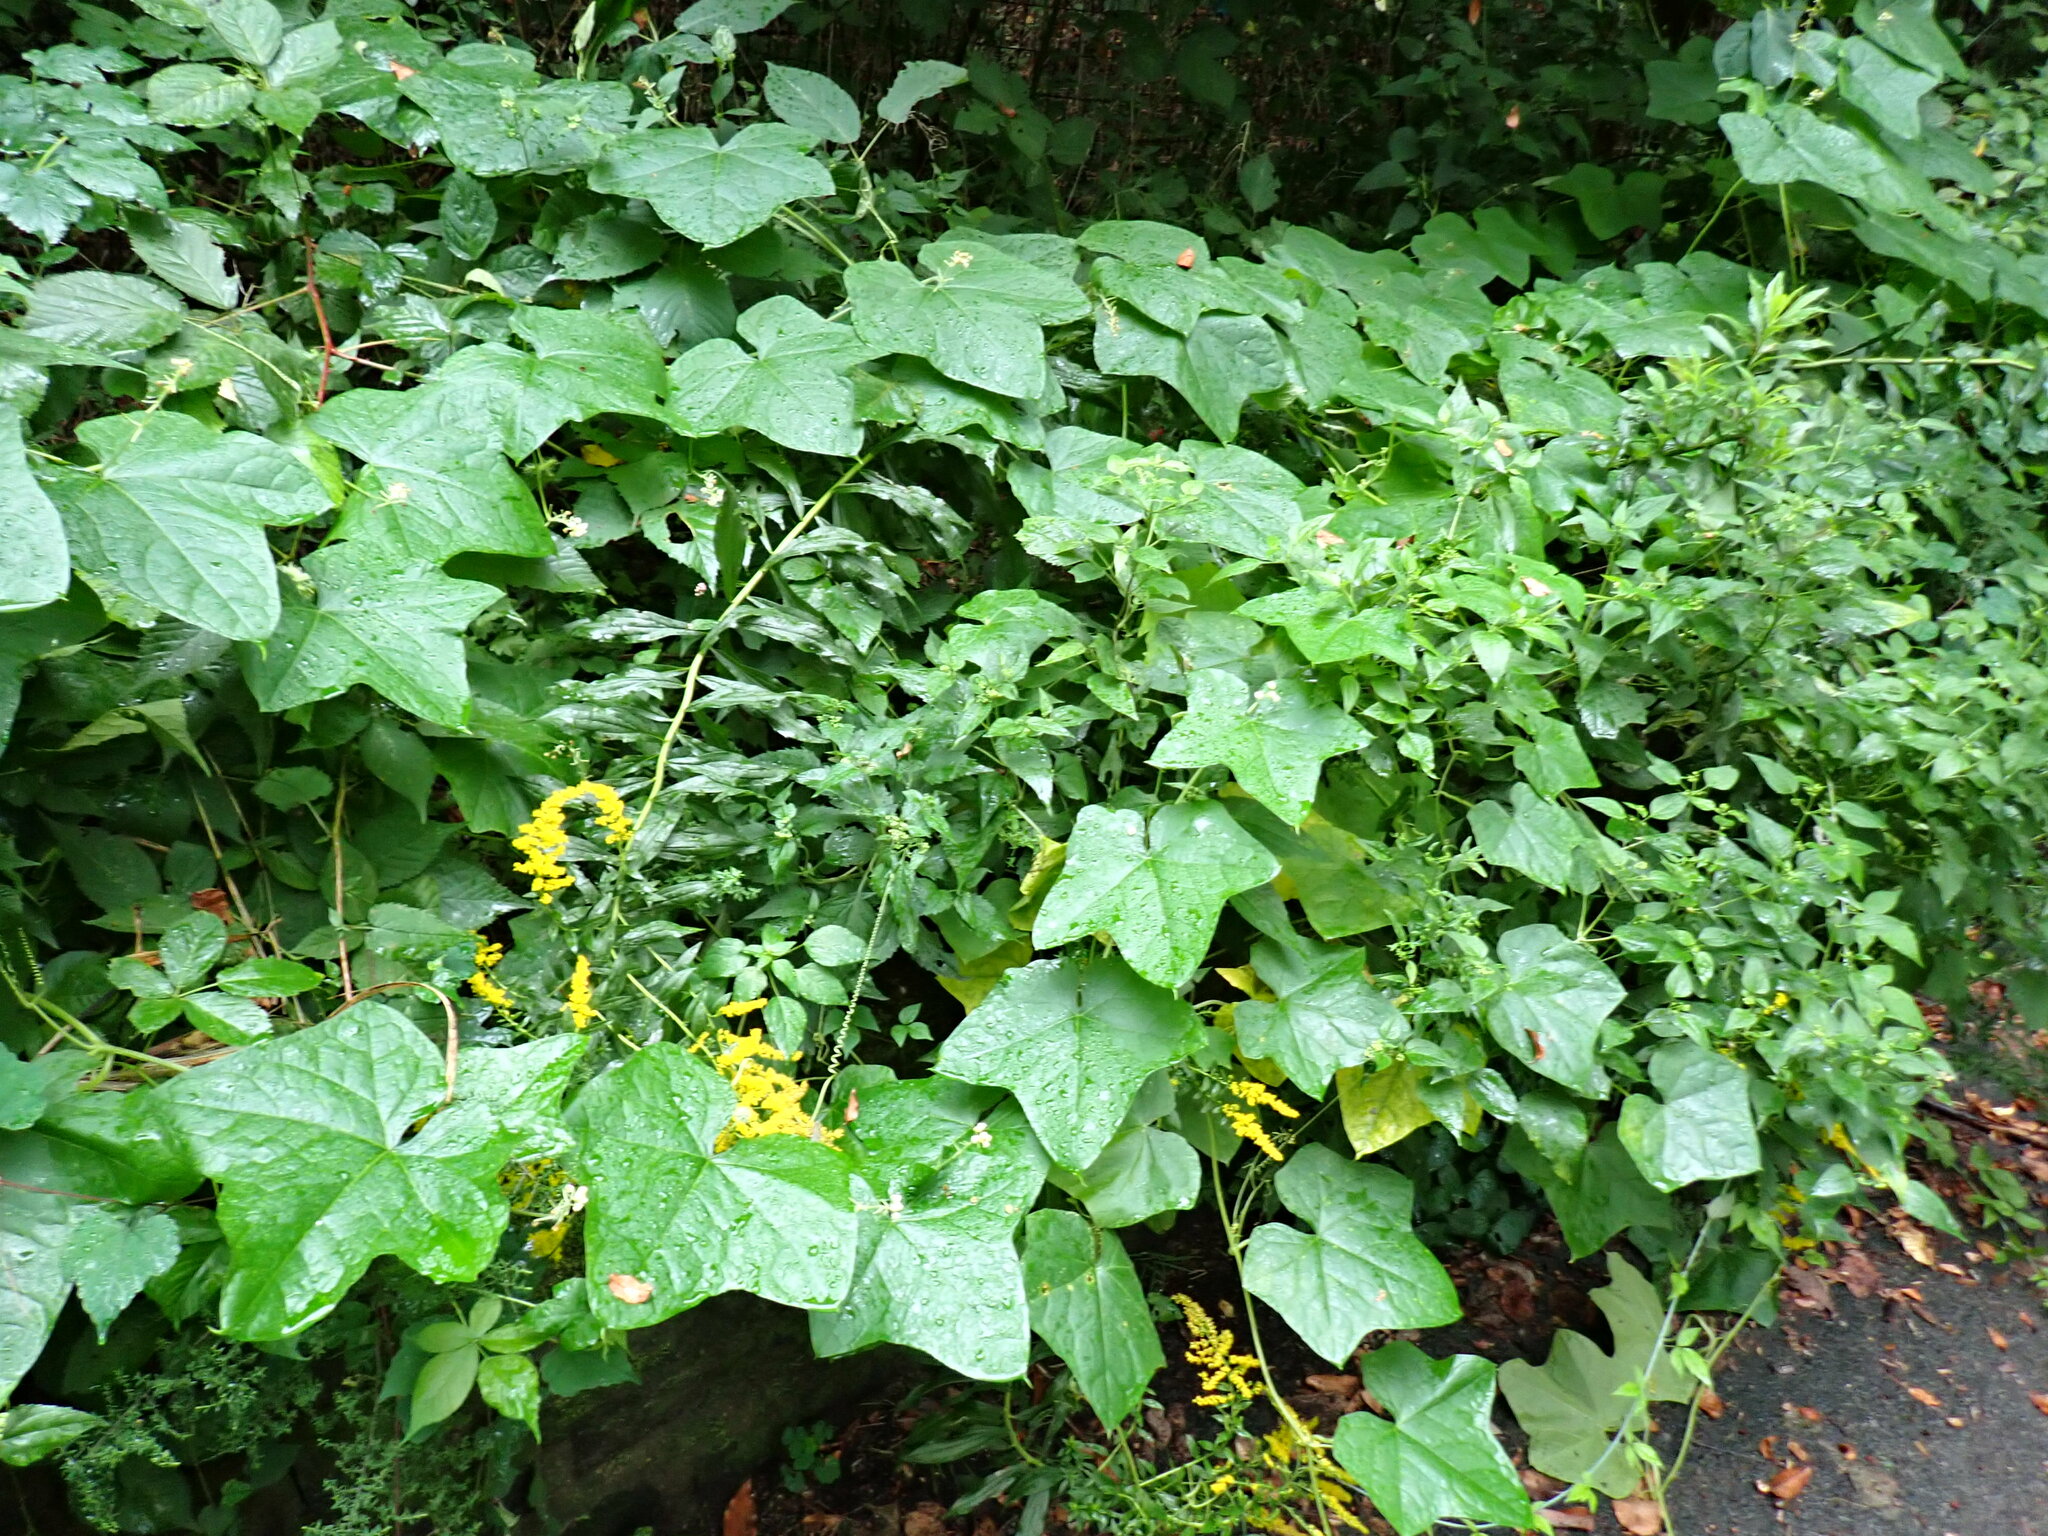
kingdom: Plantae
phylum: Tracheophyta
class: Magnoliopsida
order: Cucurbitales
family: Cucurbitaceae
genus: Sicyos
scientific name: Sicyos angulatus
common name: Angled burr cucumber
